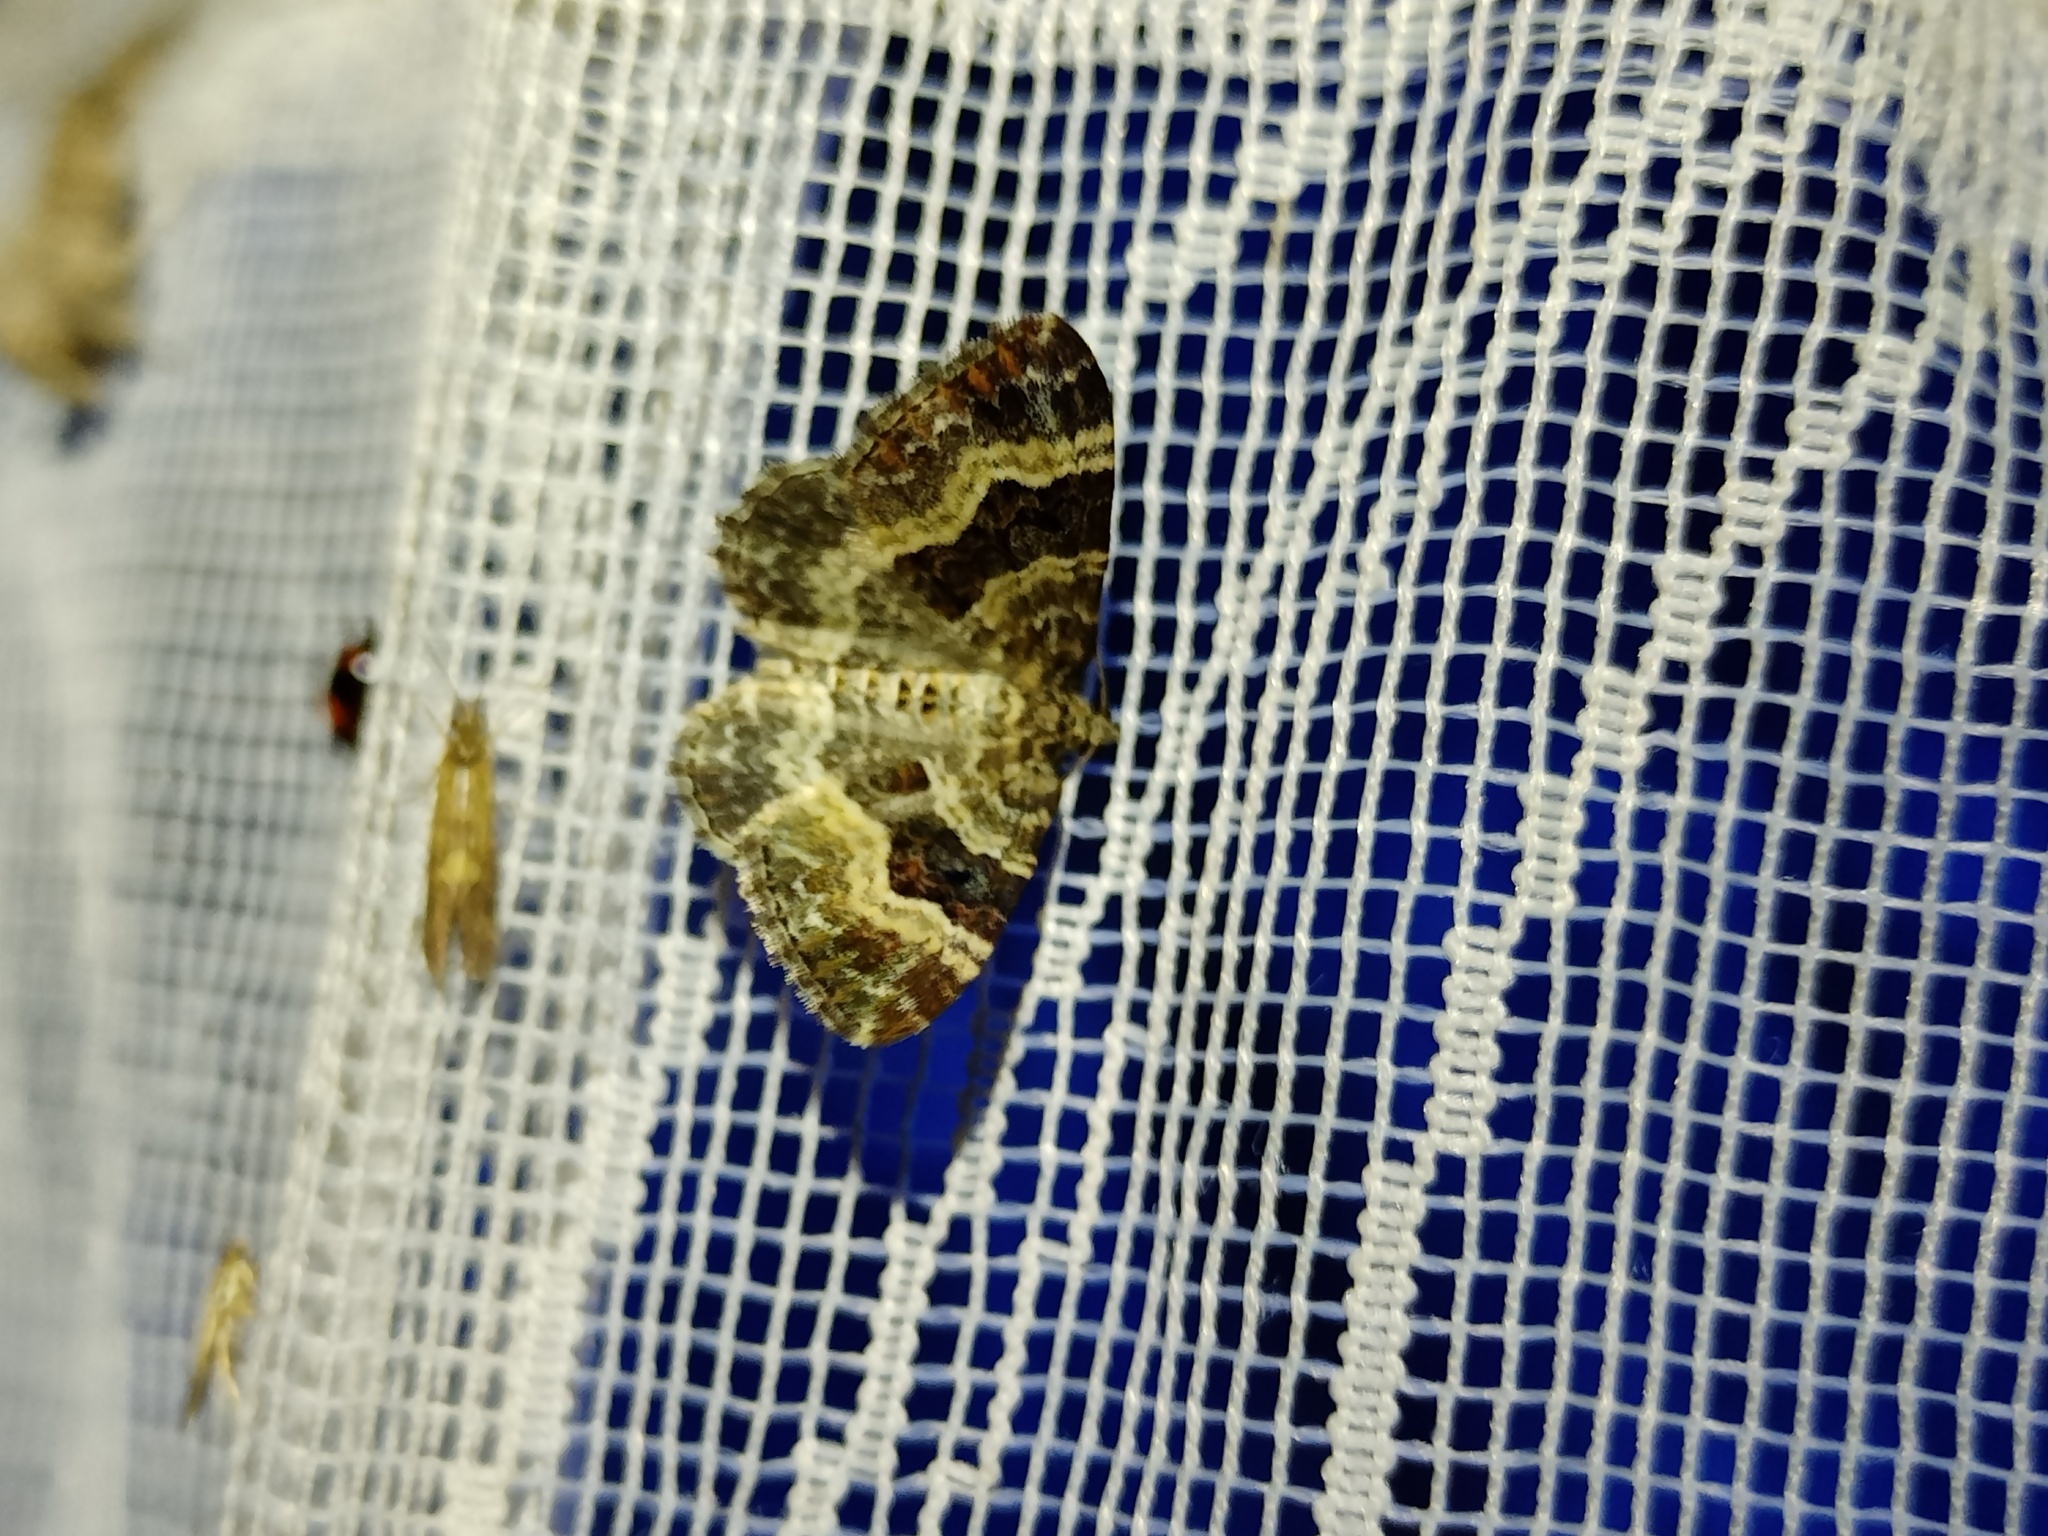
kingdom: Animalia
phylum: Arthropoda
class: Insecta
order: Lepidoptera
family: Geometridae
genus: Epirrhoe
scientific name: Epirrhoe alternata
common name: Common carpet
